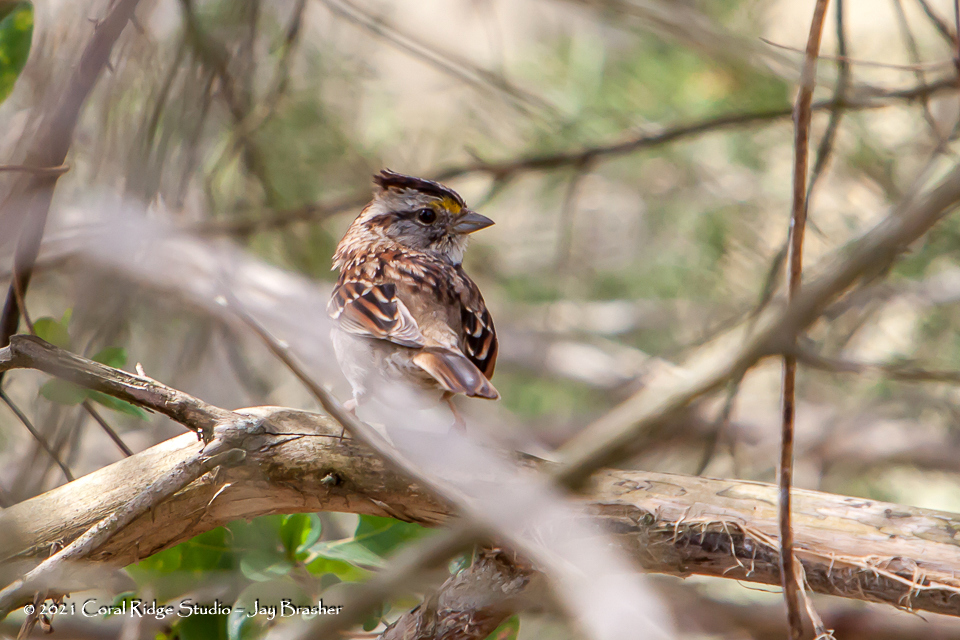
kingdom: Animalia
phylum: Chordata
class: Aves
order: Passeriformes
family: Passerellidae
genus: Zonotrichia
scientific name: Zonotrichia albicollis
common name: White-throated sparrow
